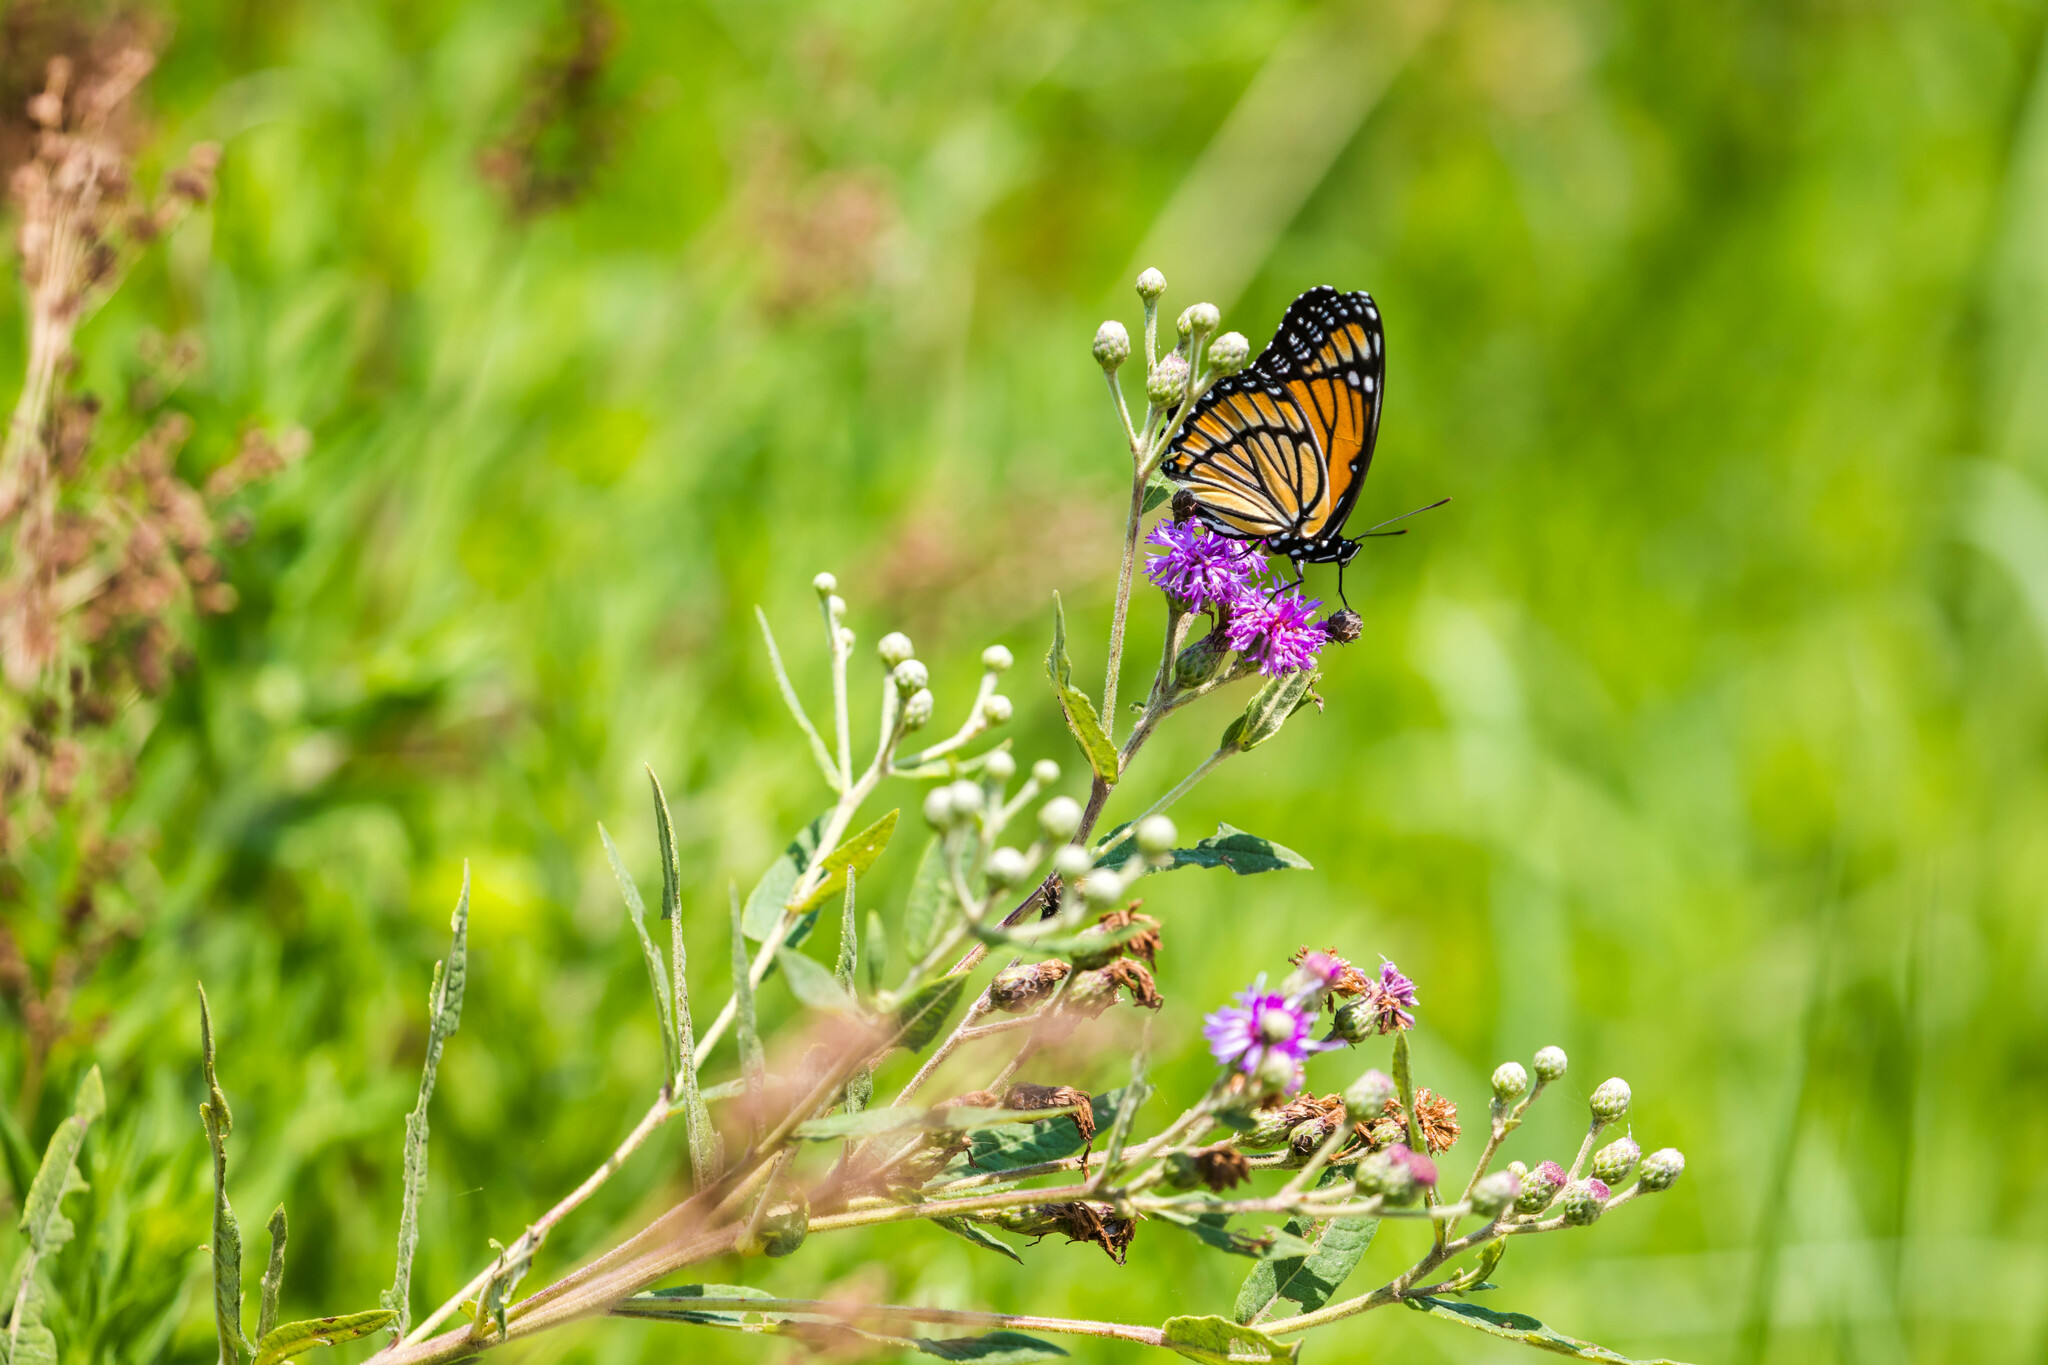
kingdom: Animalia
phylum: Arthropoda
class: Insecta
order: Lepidoptera
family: Nymphalidae
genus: Limenitis
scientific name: Limenitis archippus
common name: Viceroy
